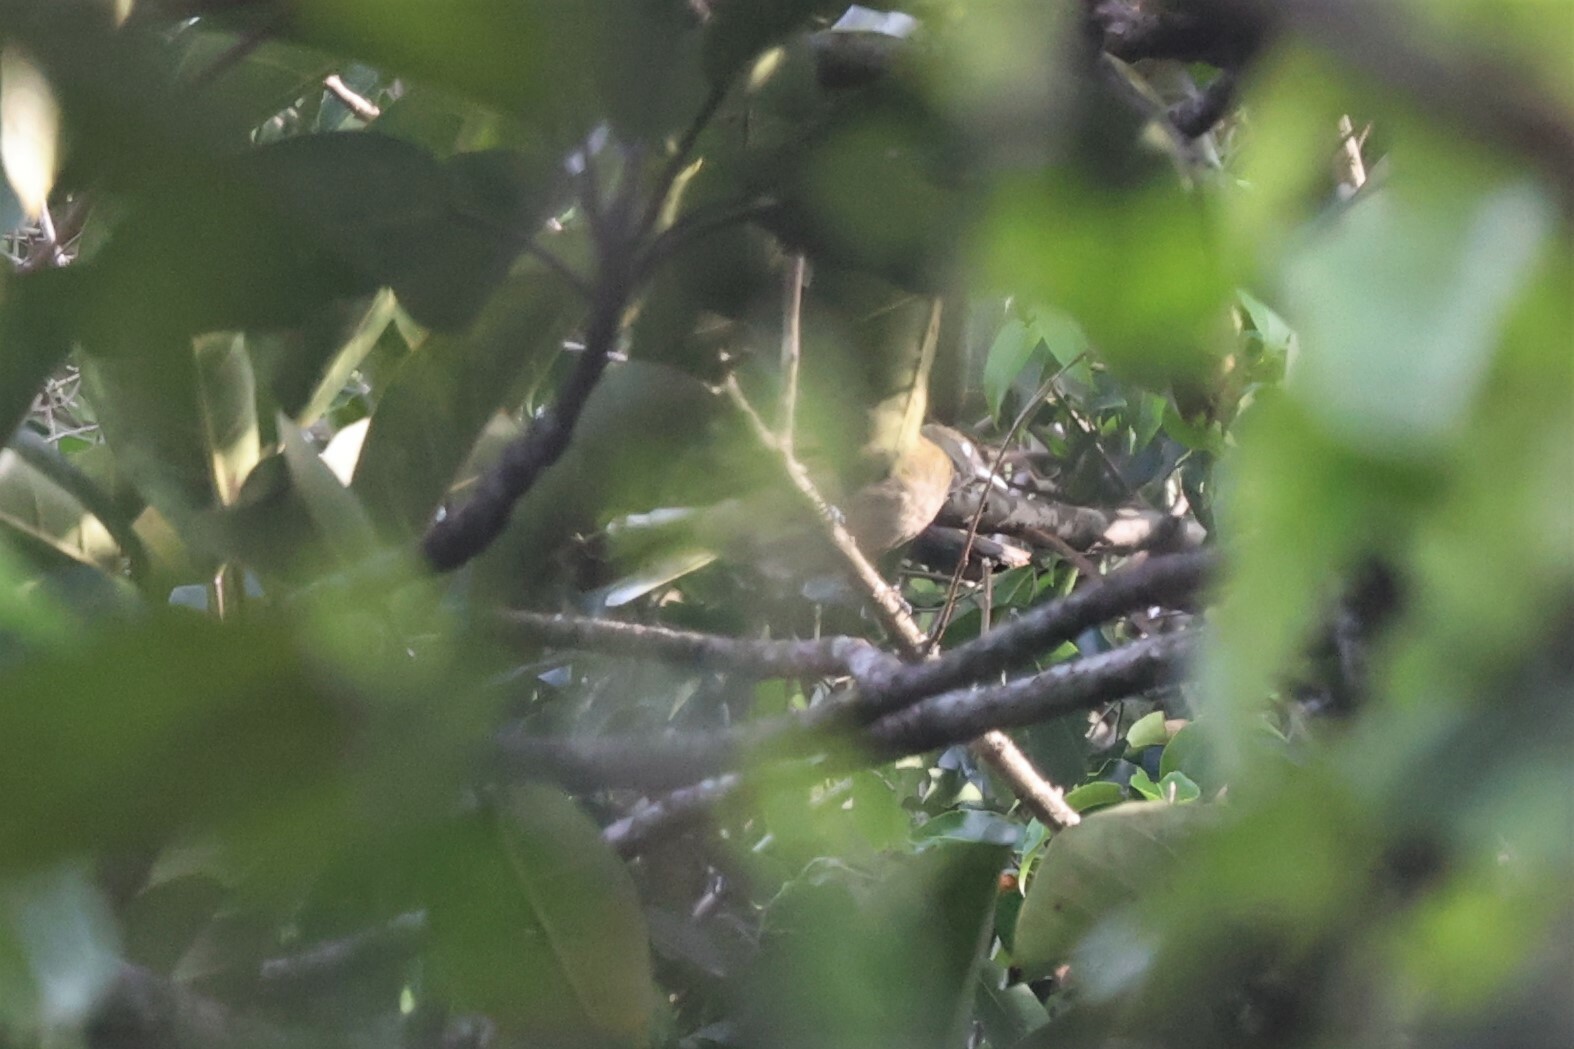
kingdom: Animalia
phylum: Chordata
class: Aves
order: Passeriformes
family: Pycnonotidae
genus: Baeopogon
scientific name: Baeopogon indicator
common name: Honeyguide greenbul
